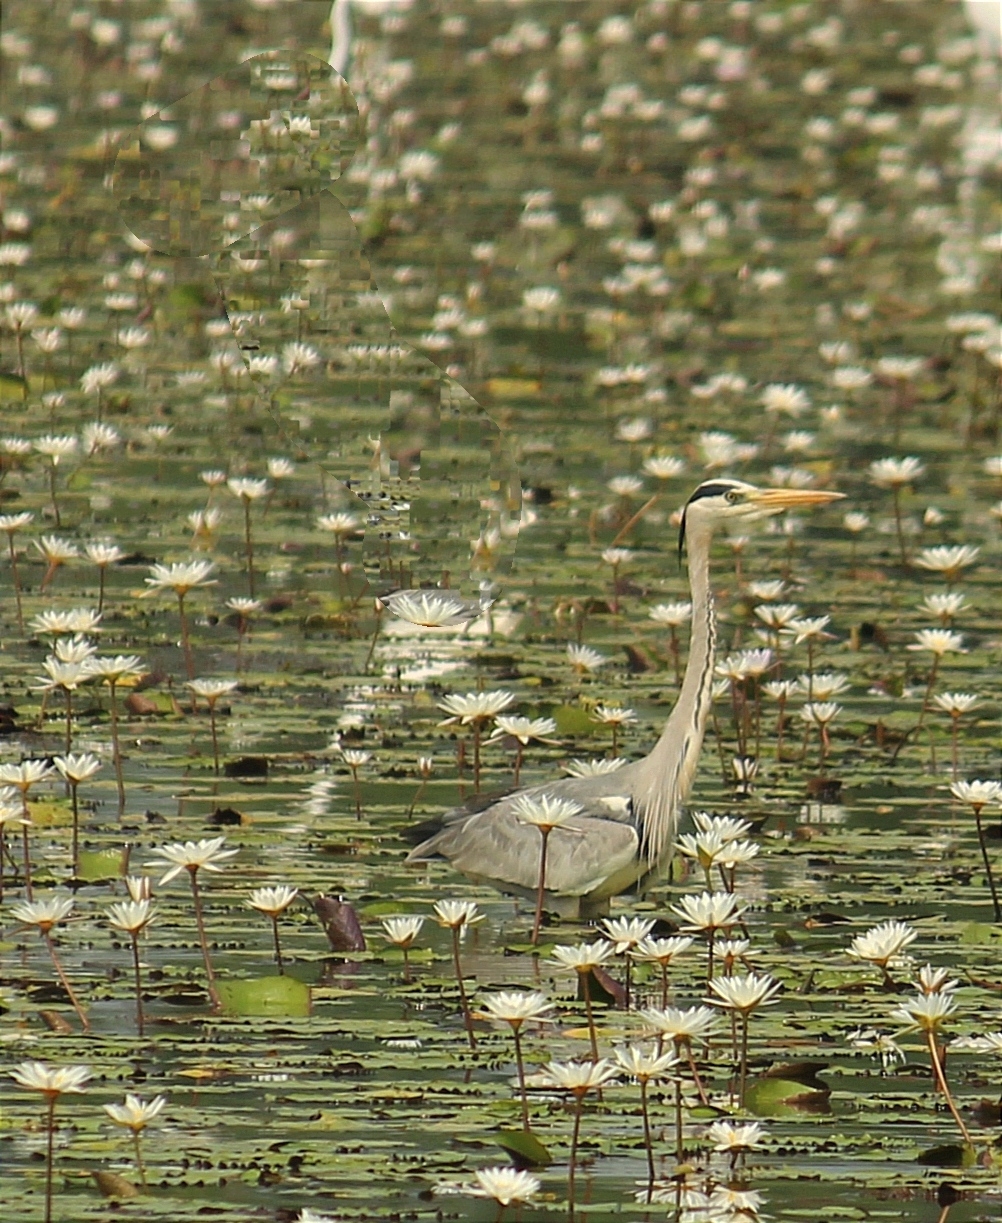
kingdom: Animalia
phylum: Chordata
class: Aves
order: Pelecaniformes
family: Ardeidae
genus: Ardea
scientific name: Ardea cinerea
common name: Grey heron
